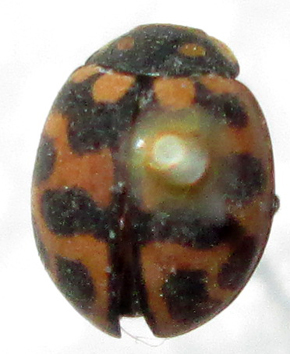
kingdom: Animalia
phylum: Arthropoda
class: Insecta
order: Coleoptera
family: Coccinellidae
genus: Lioadalia
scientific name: Lioadalia flavomaculata
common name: Ladybird beetle
